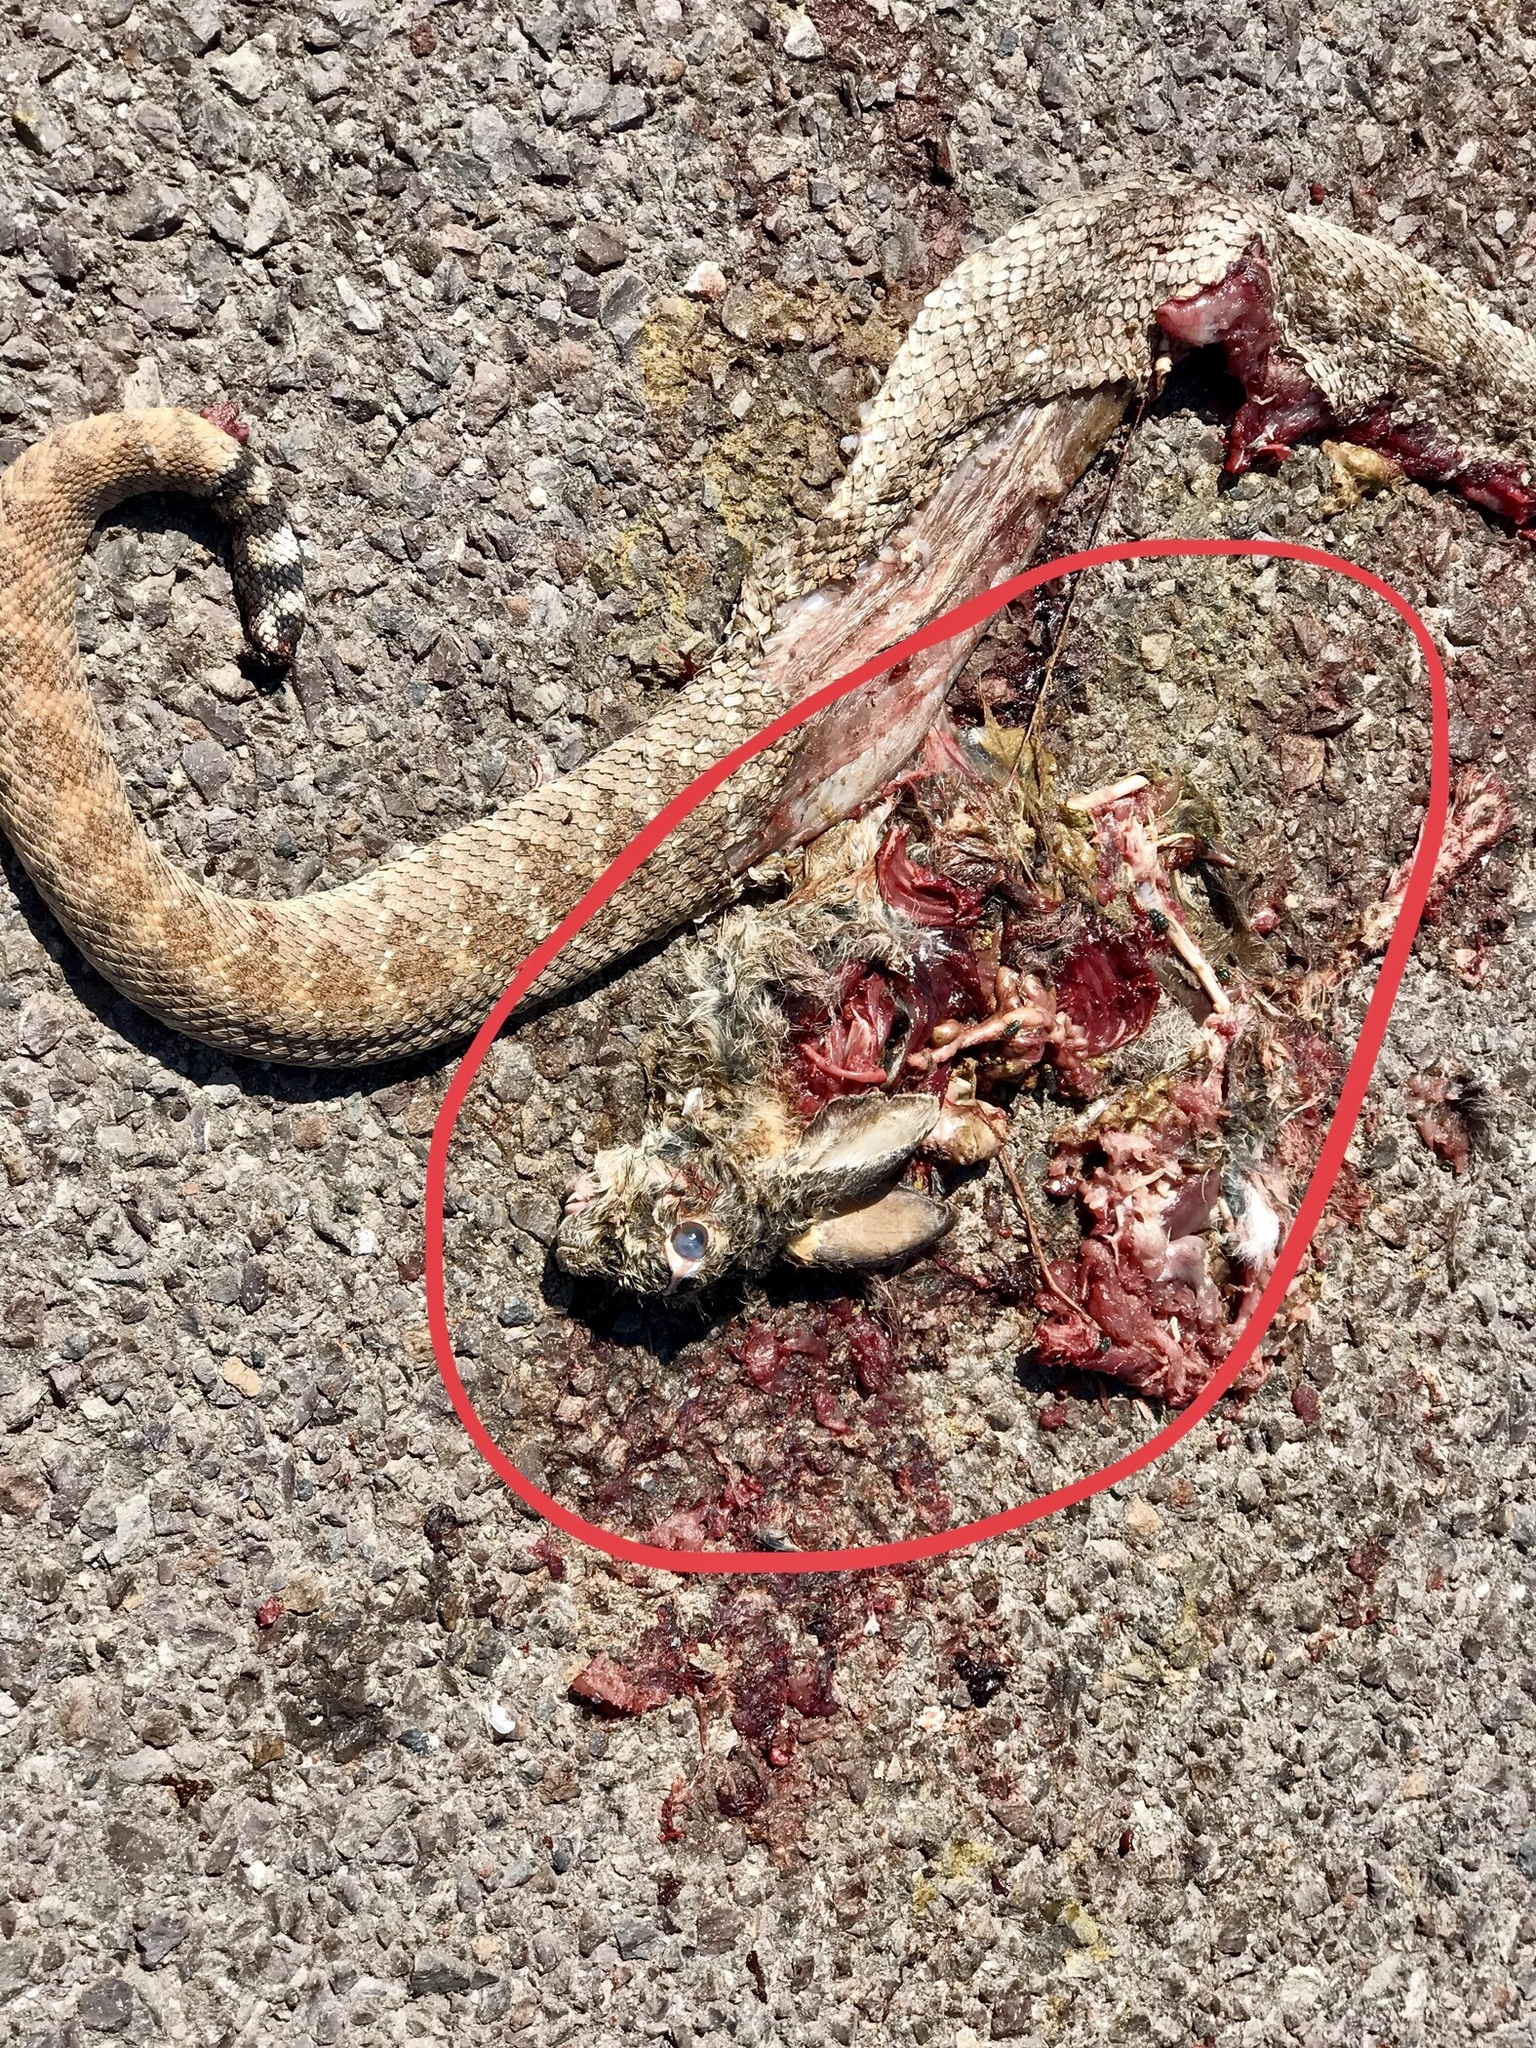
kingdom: Animalia
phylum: Chordata
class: Mammalia
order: Lagomorpha
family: Leporidae
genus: Sylvilagus
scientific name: Sylvilagus audubonii
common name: Desert cottontail
